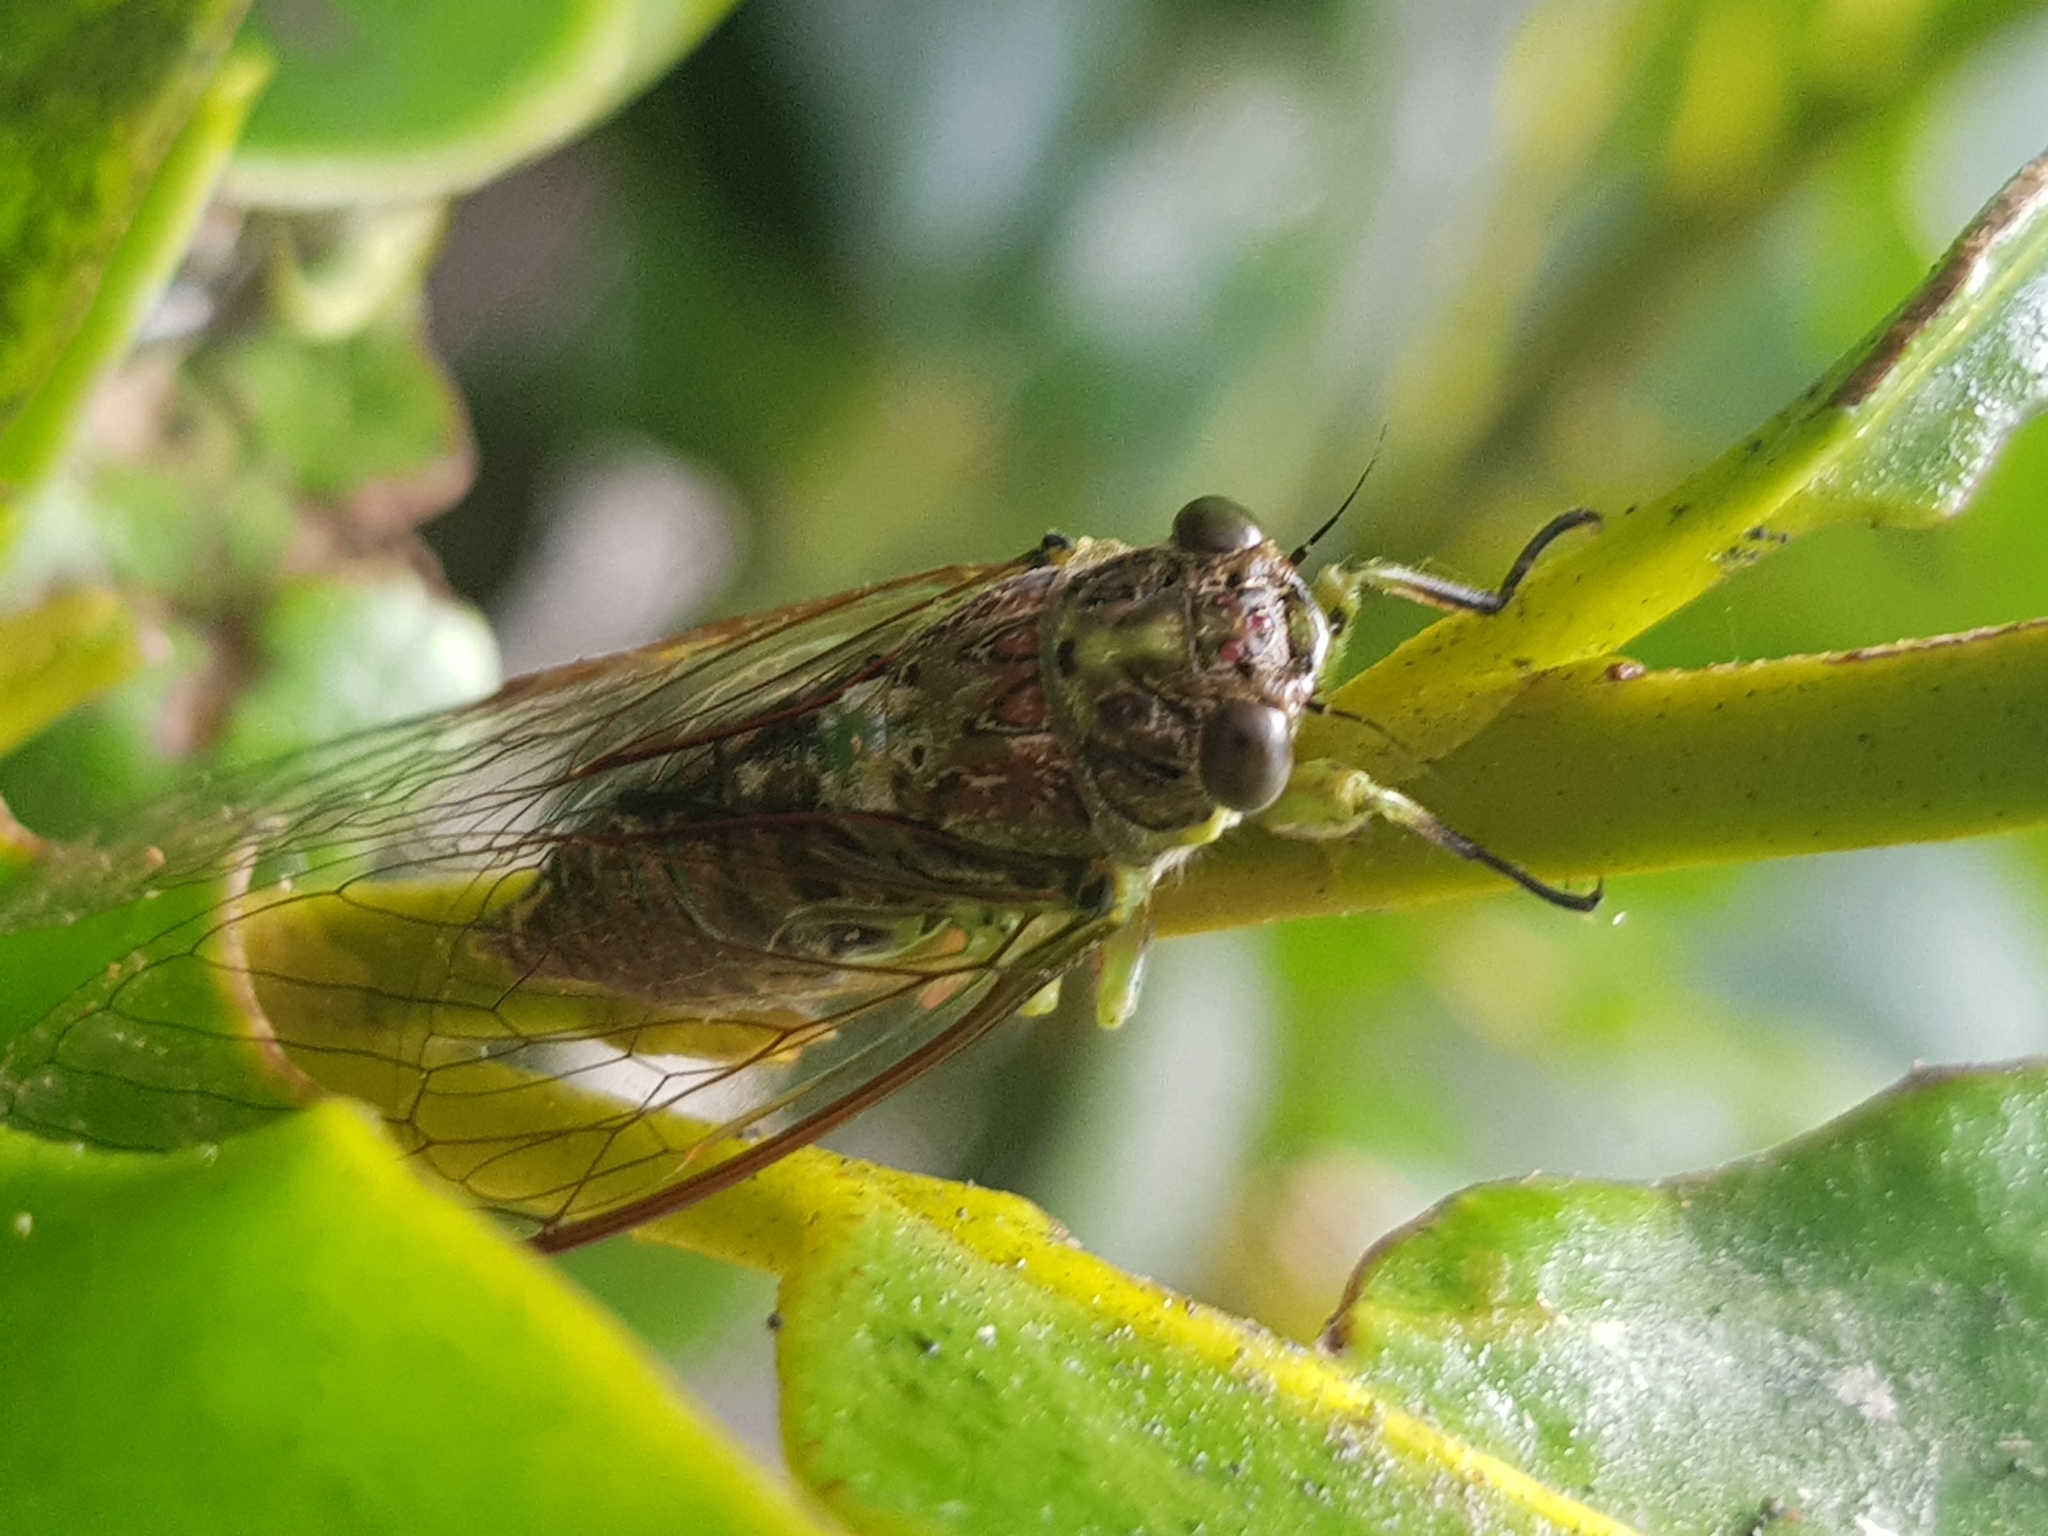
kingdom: Animalia
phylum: Arthropoda
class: Insecta
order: Hemiptera
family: Cicadidae
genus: Kikihia
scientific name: Kikihia scutellaris
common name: Lesser bronze cicada
